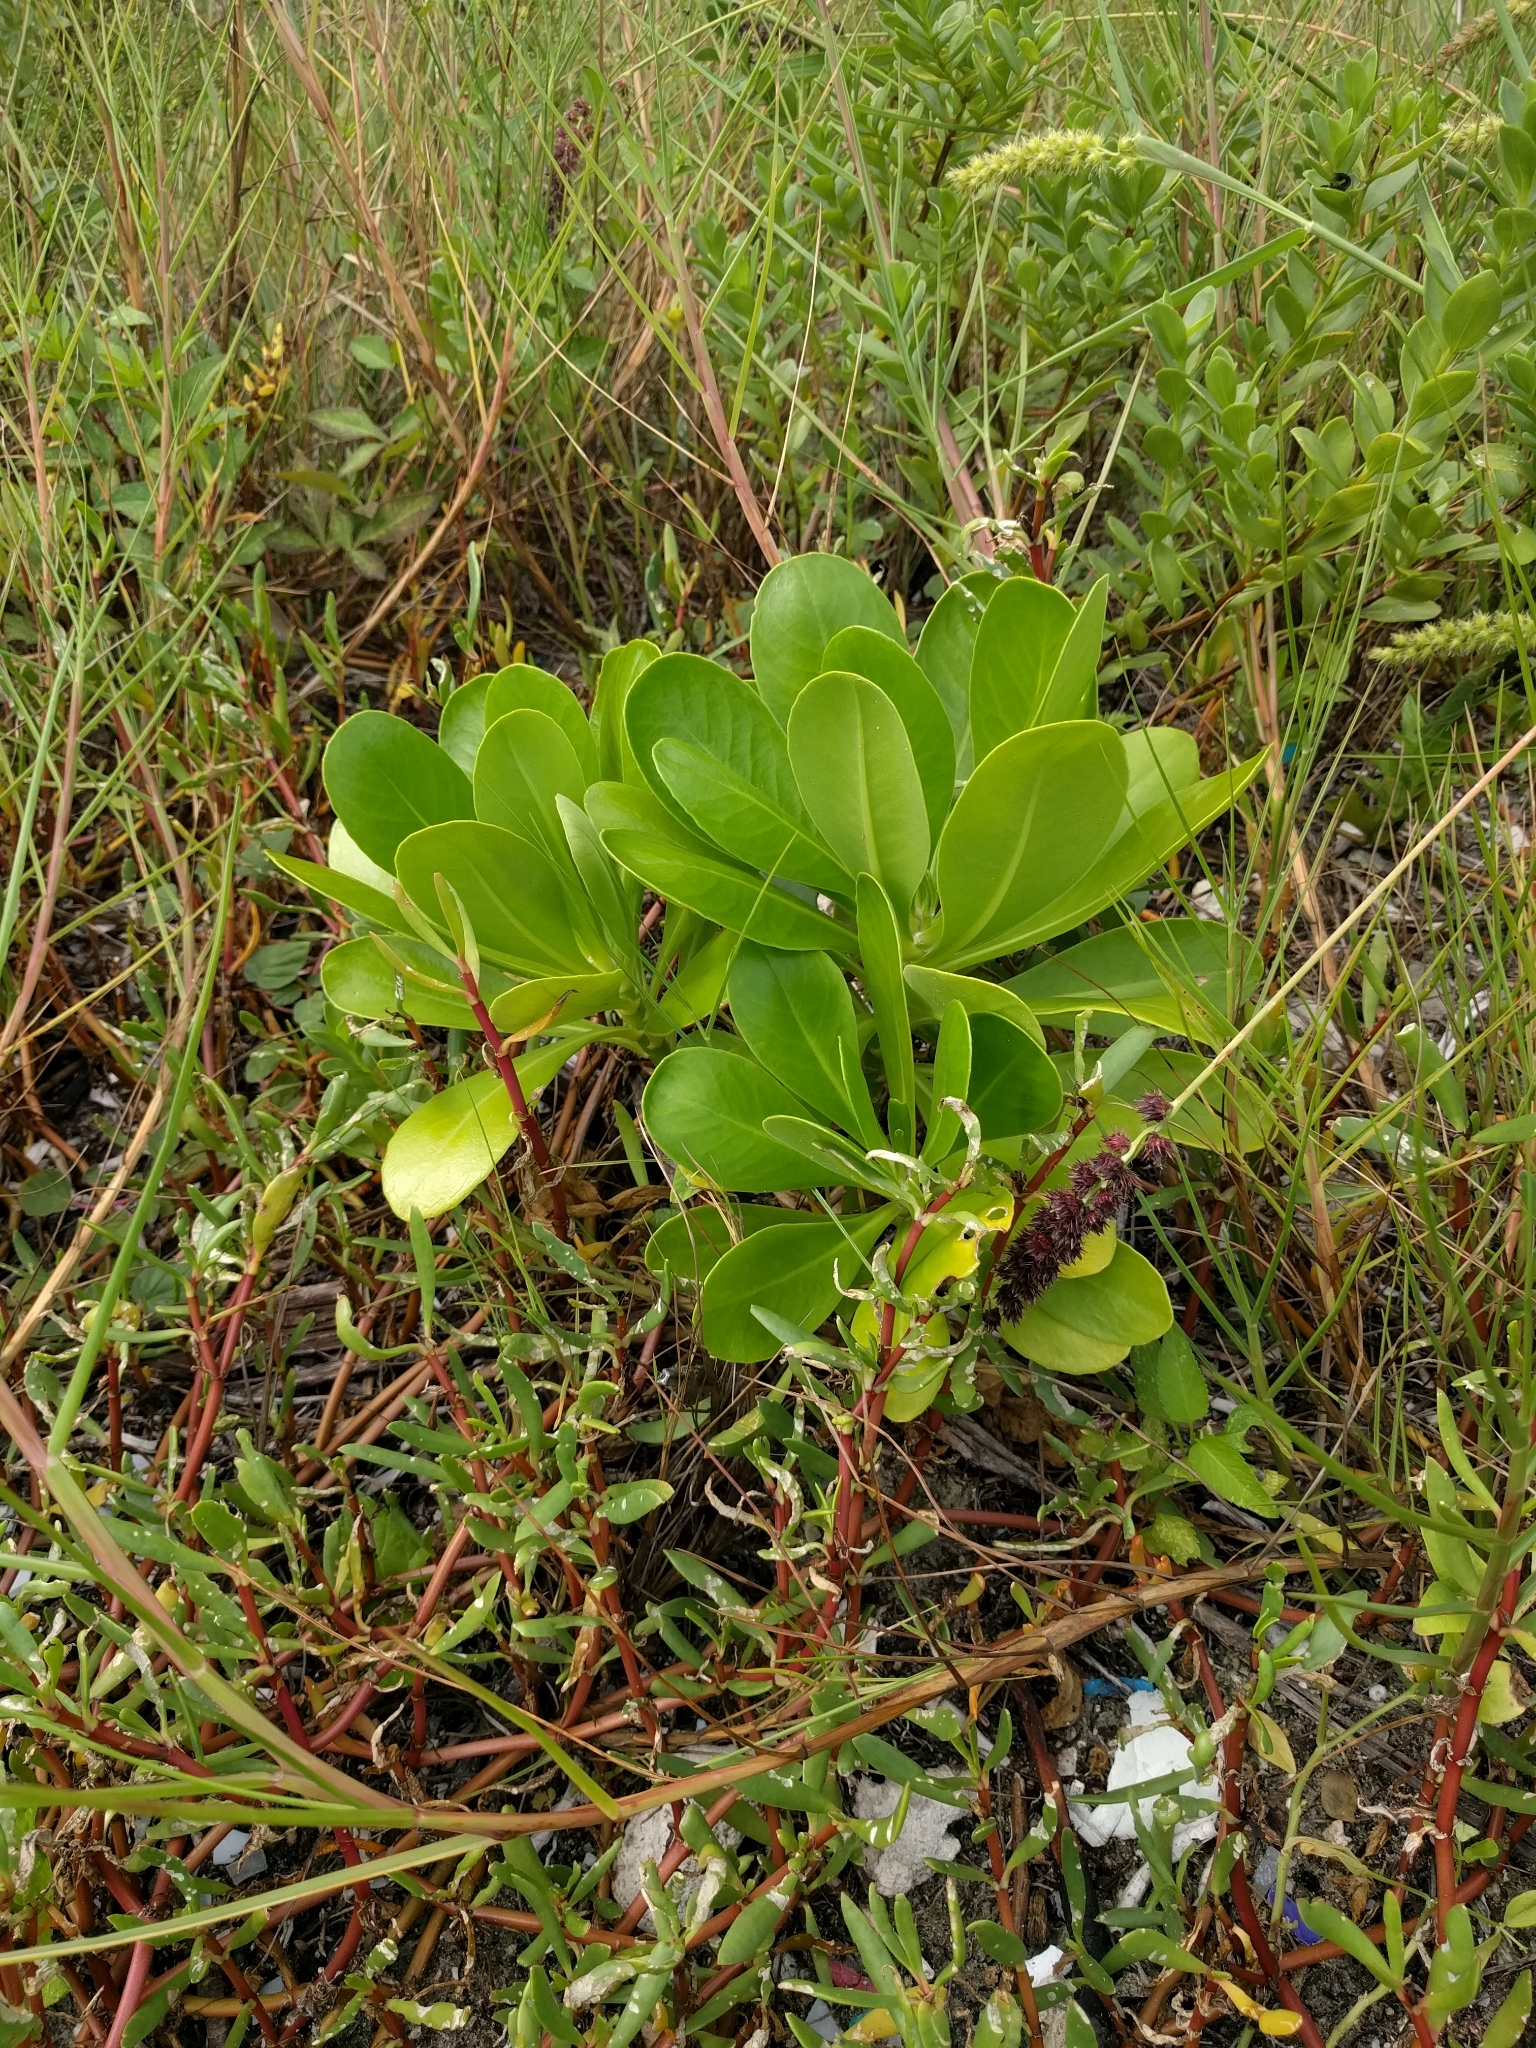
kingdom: Plantae
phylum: Tracheophyta
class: Magnoliopsida
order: Asterales
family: Goodeniaceae
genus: Scaevola
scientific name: Scaevola taccada
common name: Sea lettucetree
